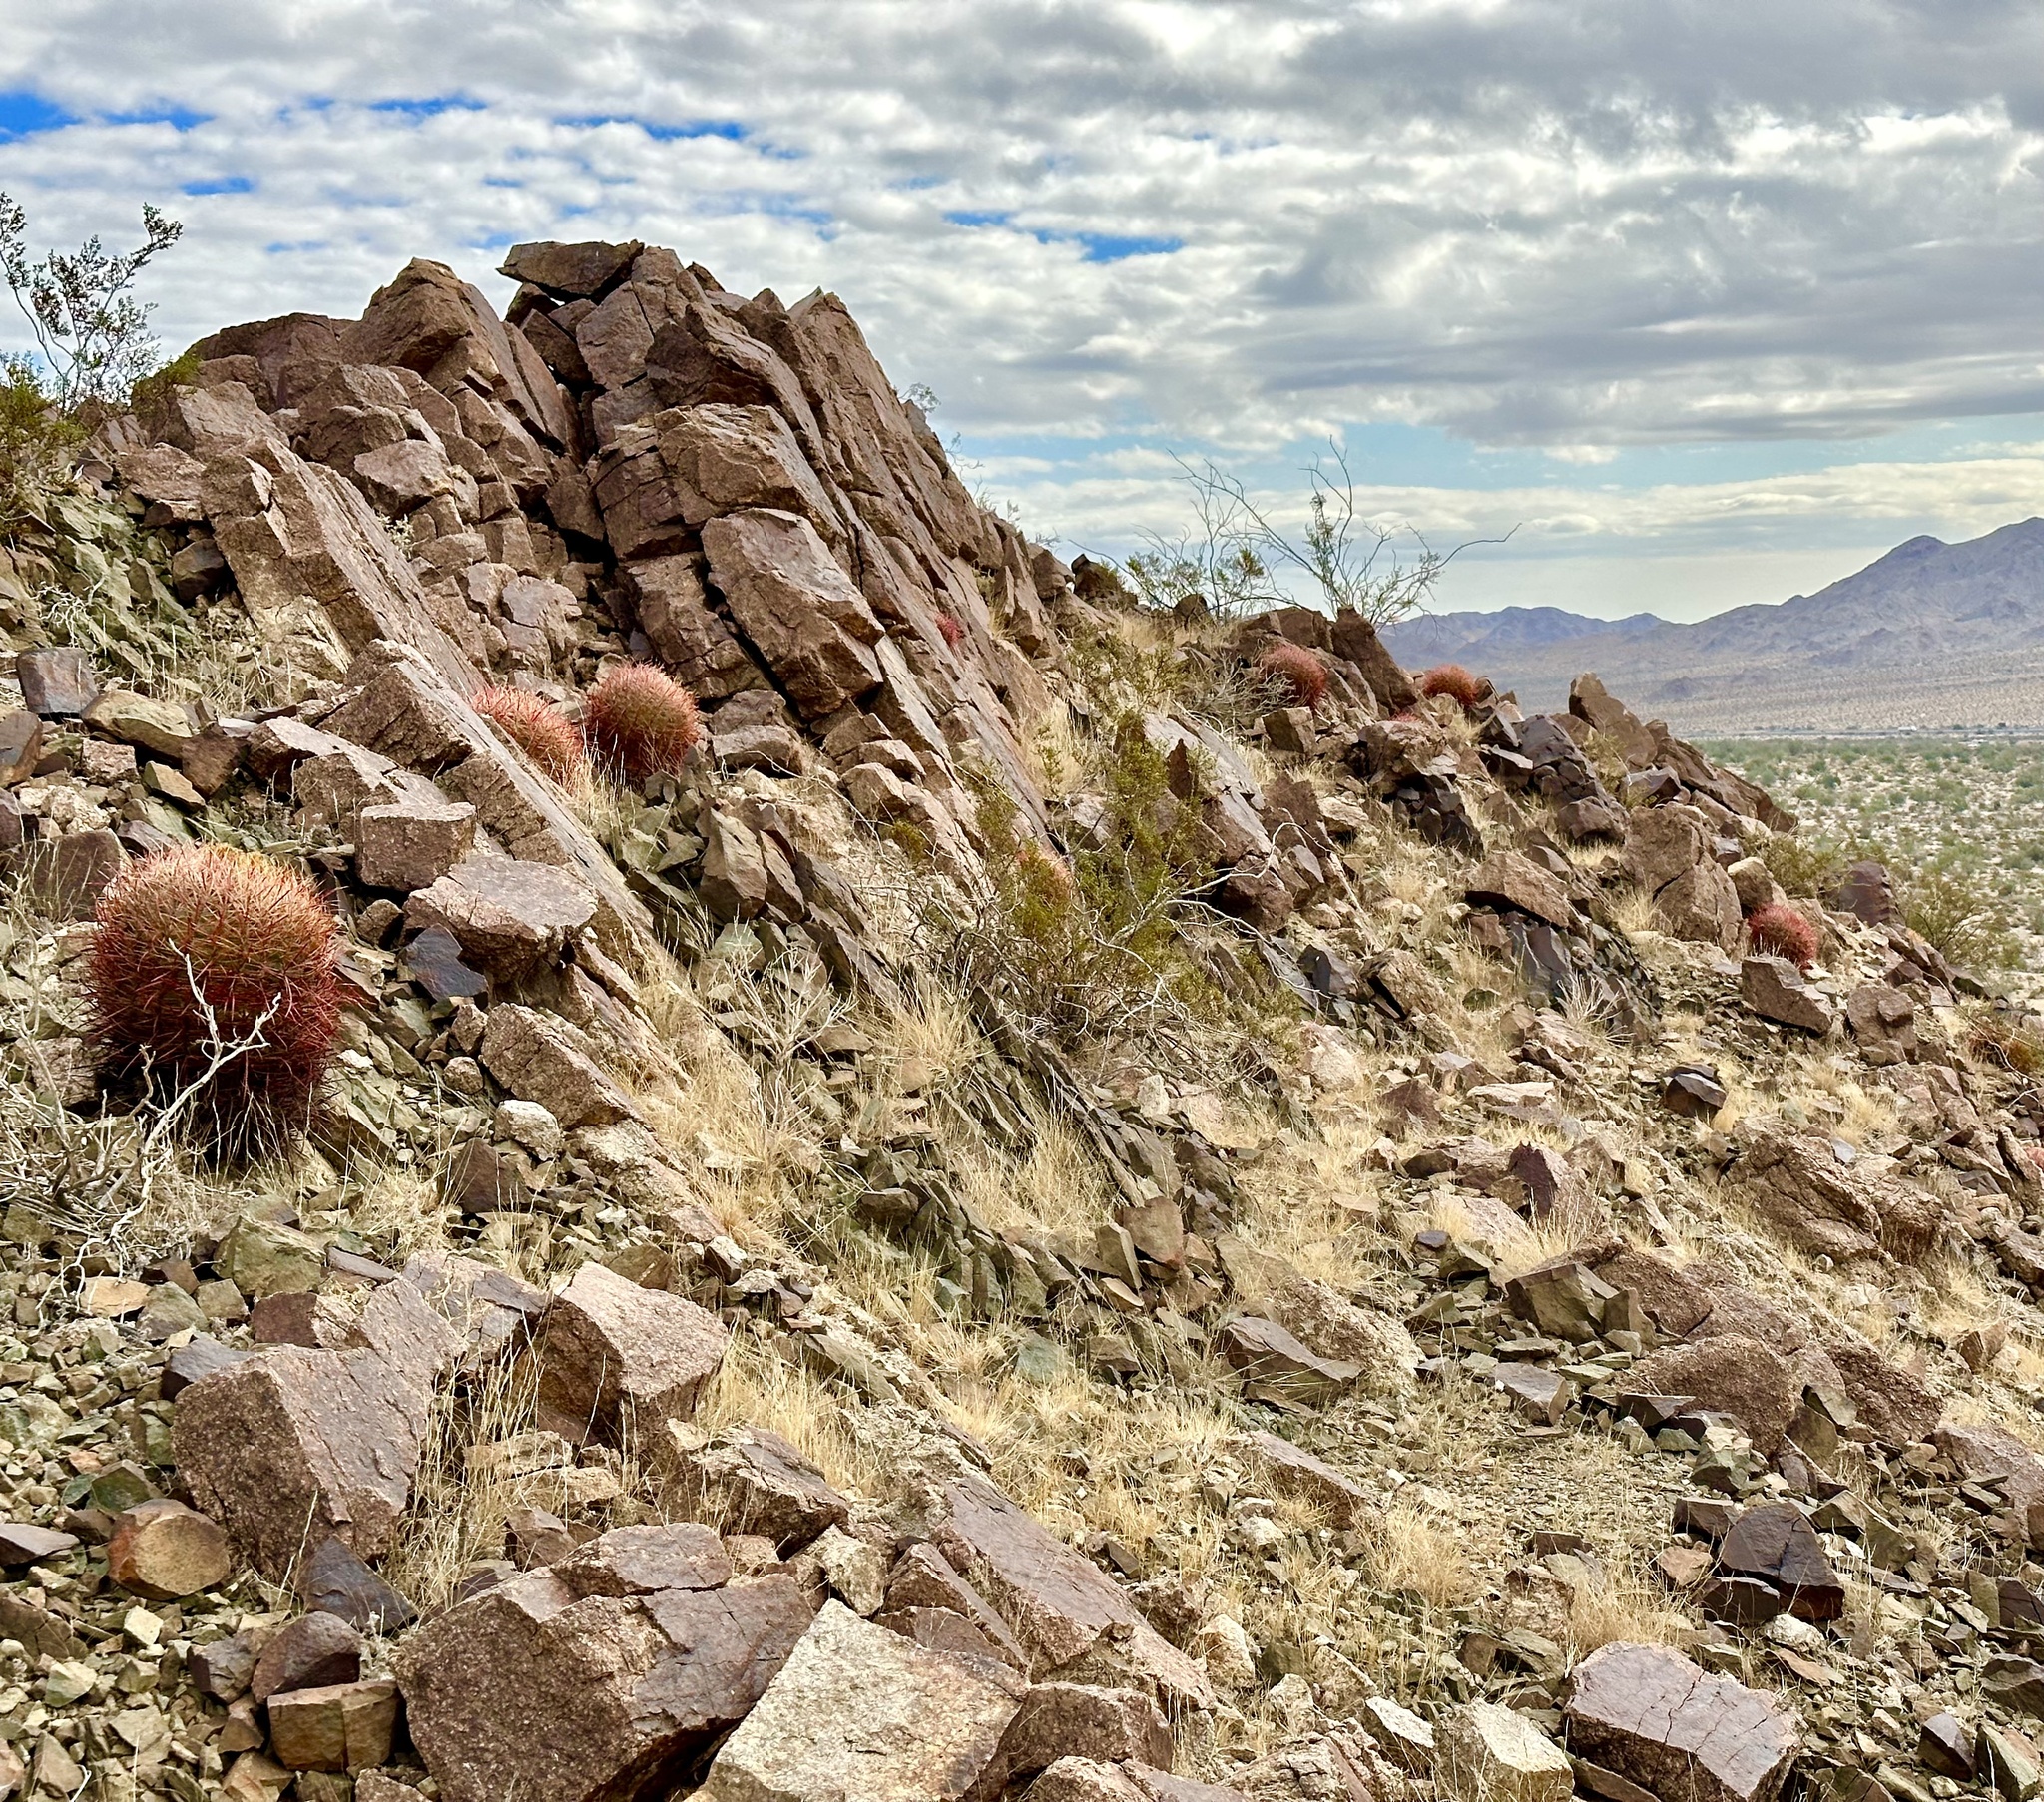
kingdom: Plantae
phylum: Tracheophyta
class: Magnoliopsida
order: Caryophyllales
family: Cactaceae
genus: Ferocactus
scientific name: Ferocactus cylindraceus
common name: California barrel cactus
